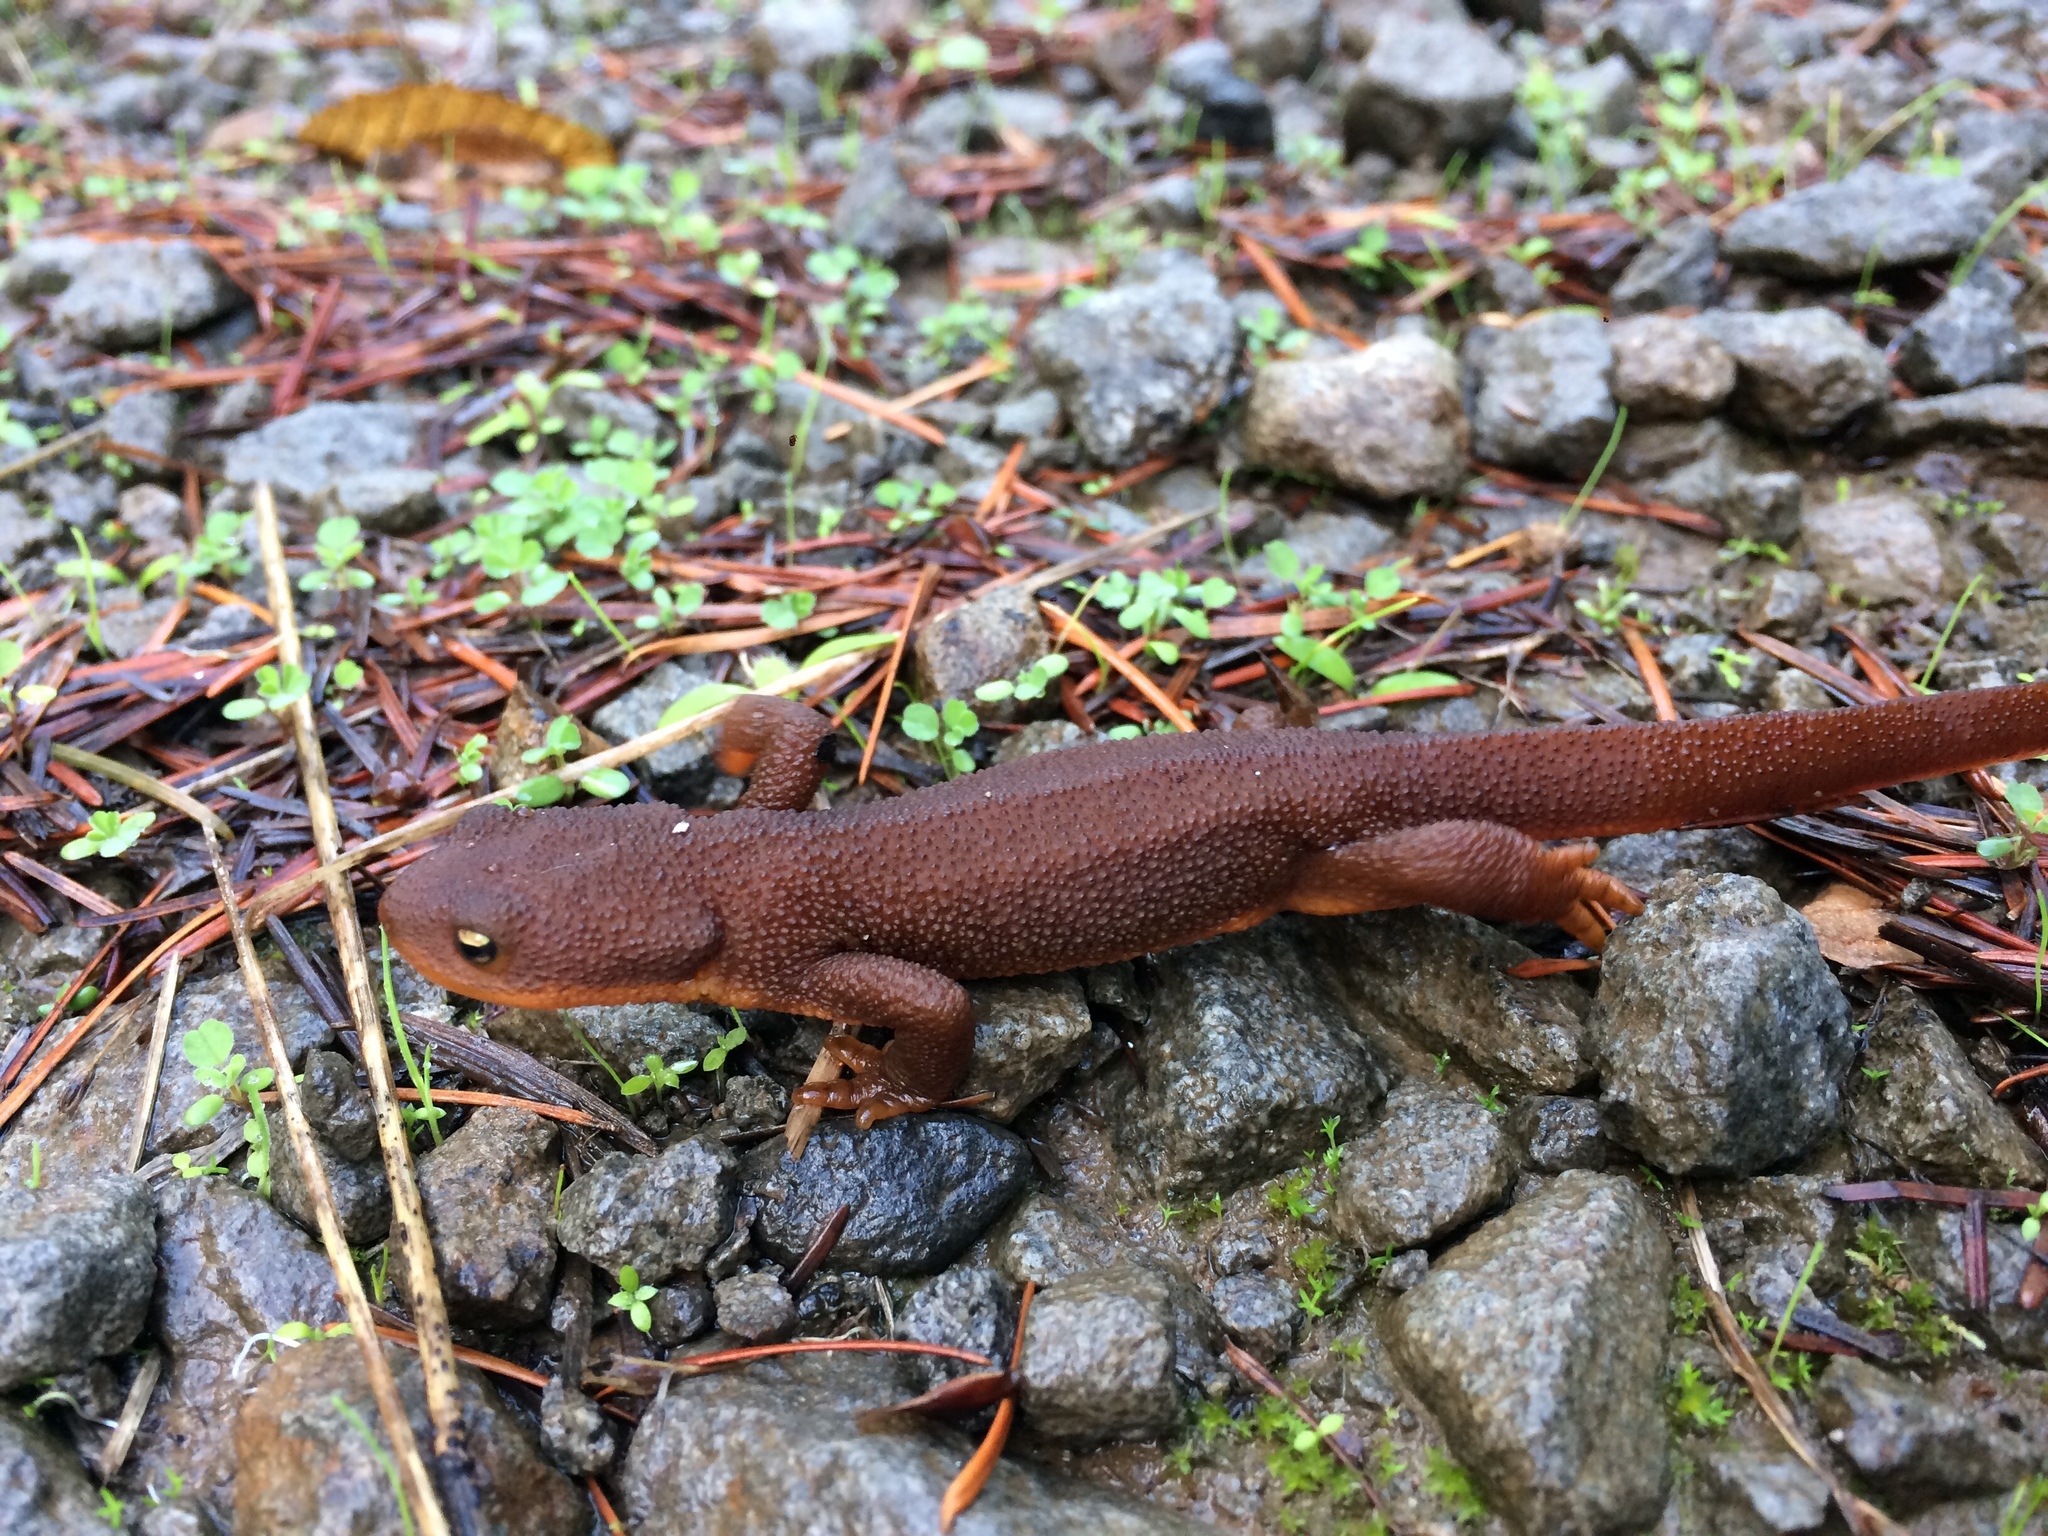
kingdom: Animalia
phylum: Chordata
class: Amphibia
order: Caudata
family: Salamandridae
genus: Taricha
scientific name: Taricha granulosa
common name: Roughskin newt
